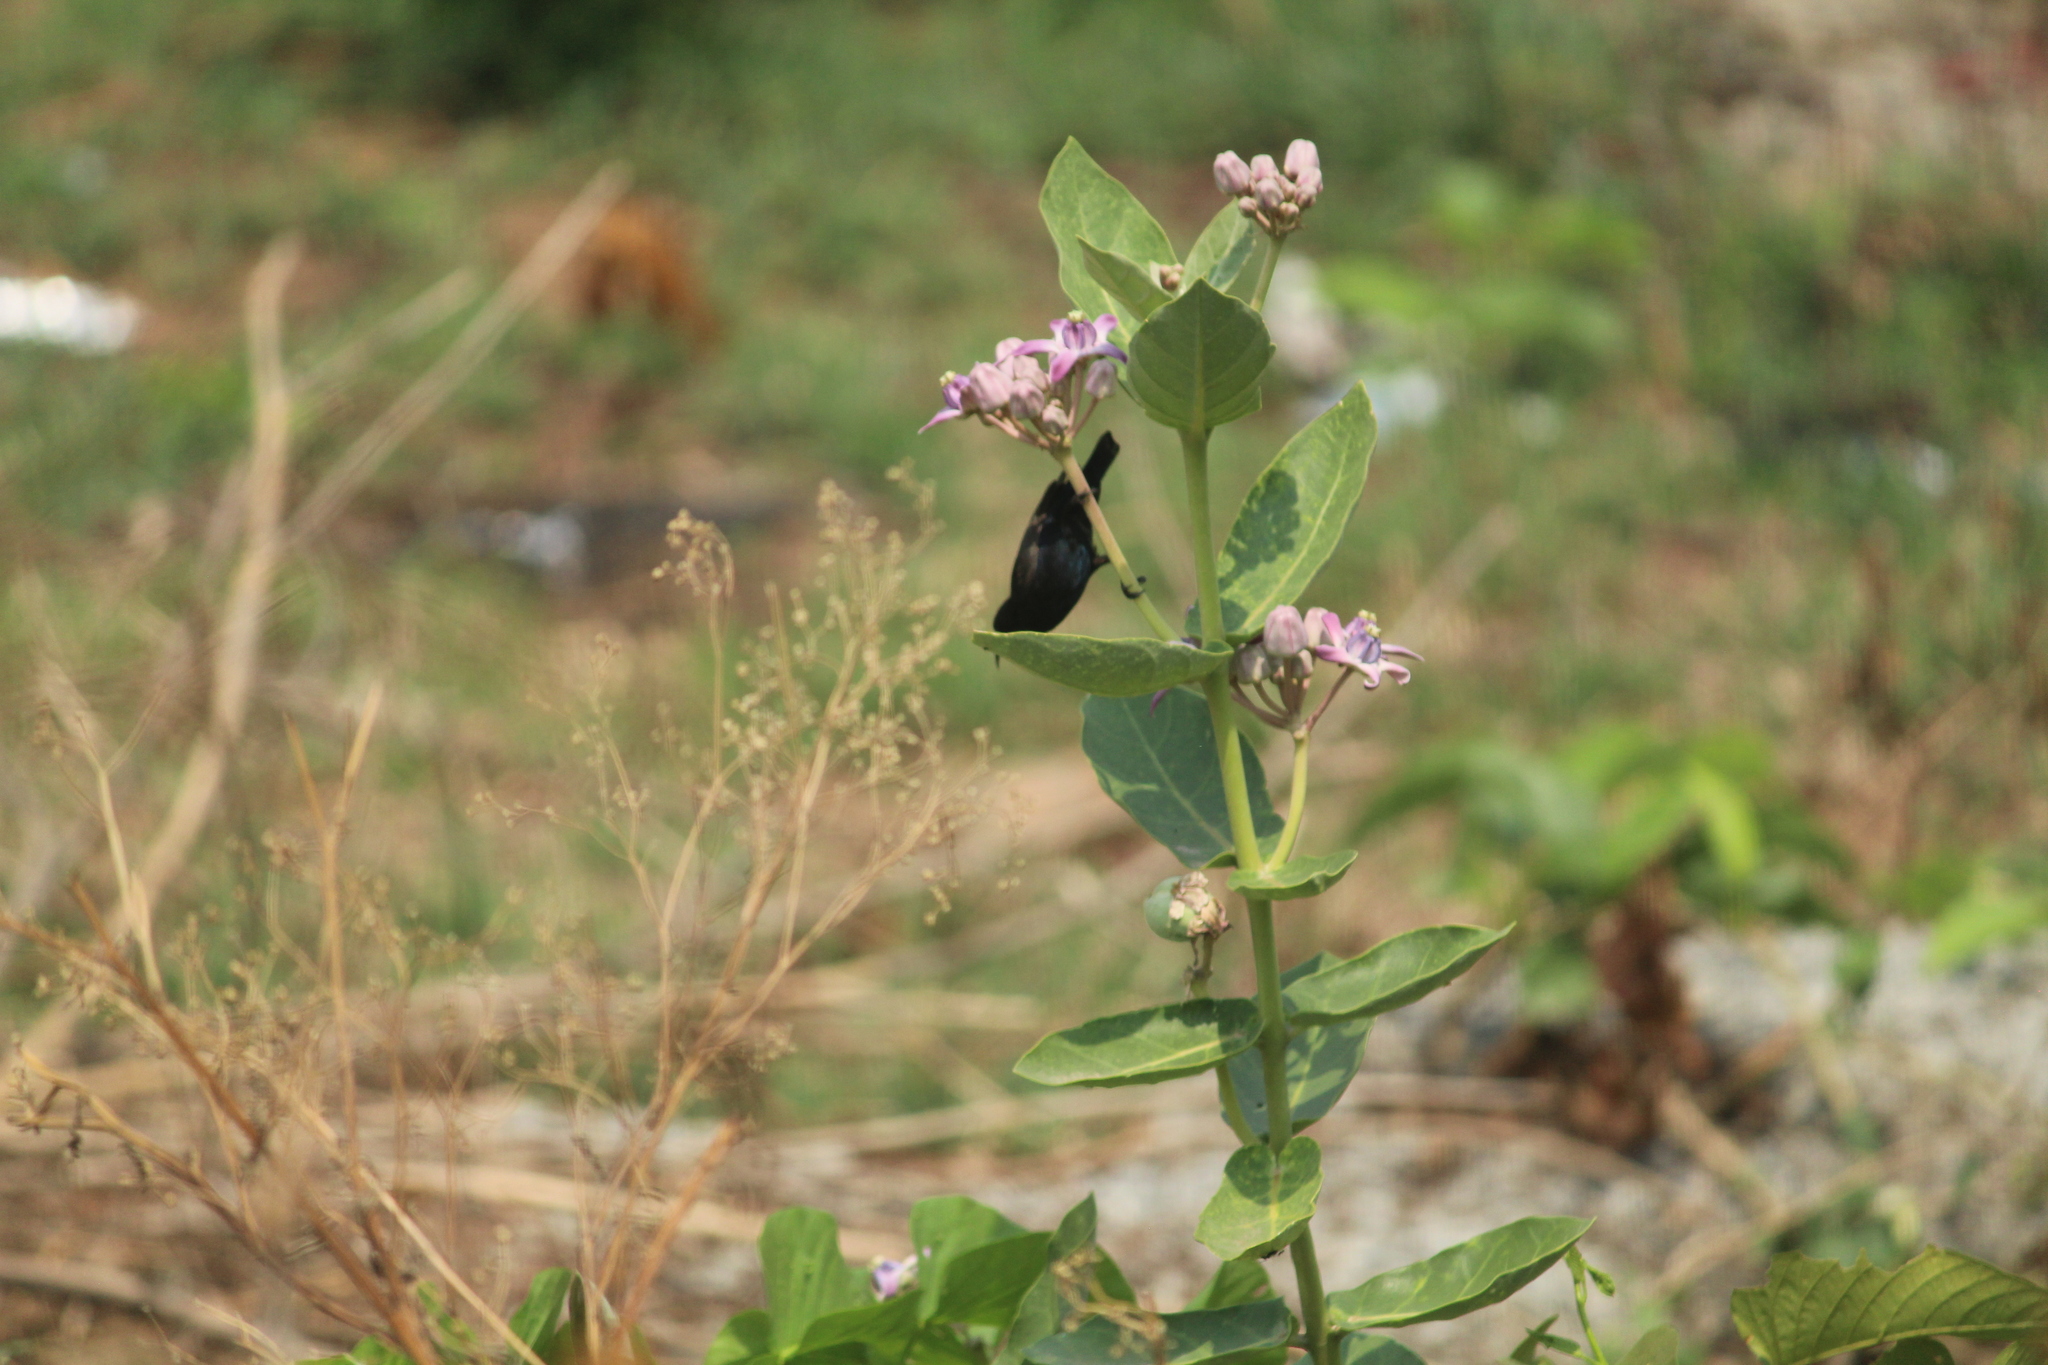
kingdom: Animalia
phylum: Chordata
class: Aves
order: Passeriformes
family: Nectariniidae
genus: Cinnyris
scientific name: Cinnyris asiaticus
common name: Purple sunbird
